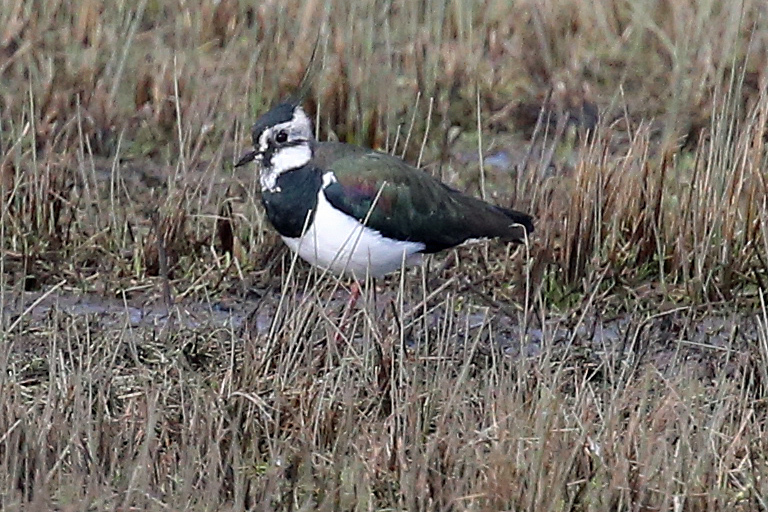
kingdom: Animalia
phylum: Chordata
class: Aves
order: Charadriiformes
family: Charadriidae
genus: Vanellus
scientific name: Vanellus vanellus
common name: Northern lapwing
